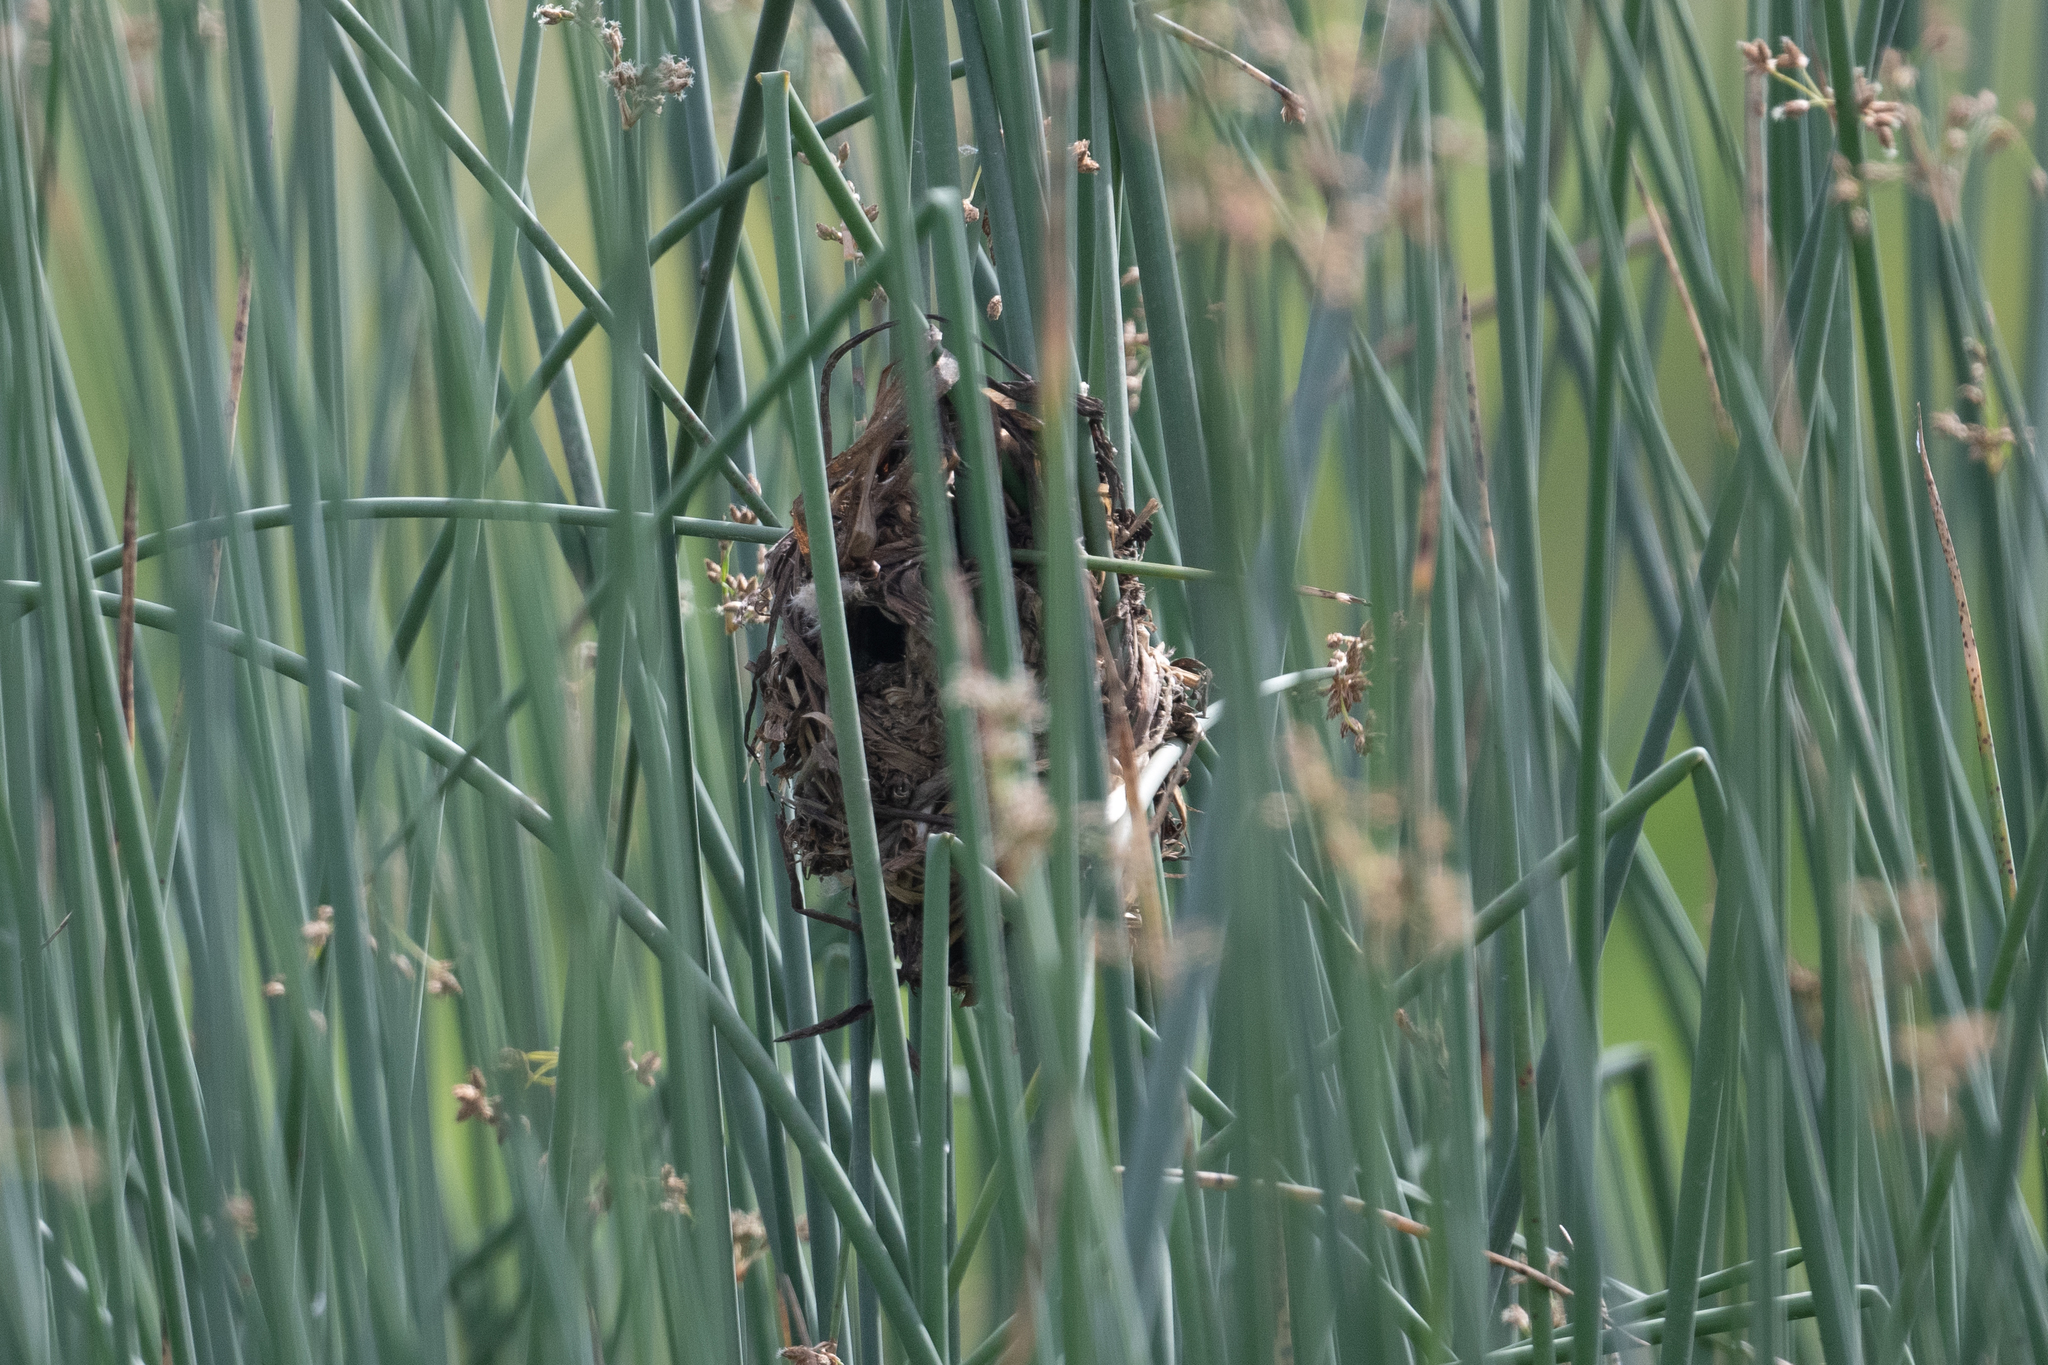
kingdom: Animalia
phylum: Chordata
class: Aves
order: Passeriformes
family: Troglodytidae
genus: Cistothorus
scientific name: Cistothorus palustris
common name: Marsh wren
